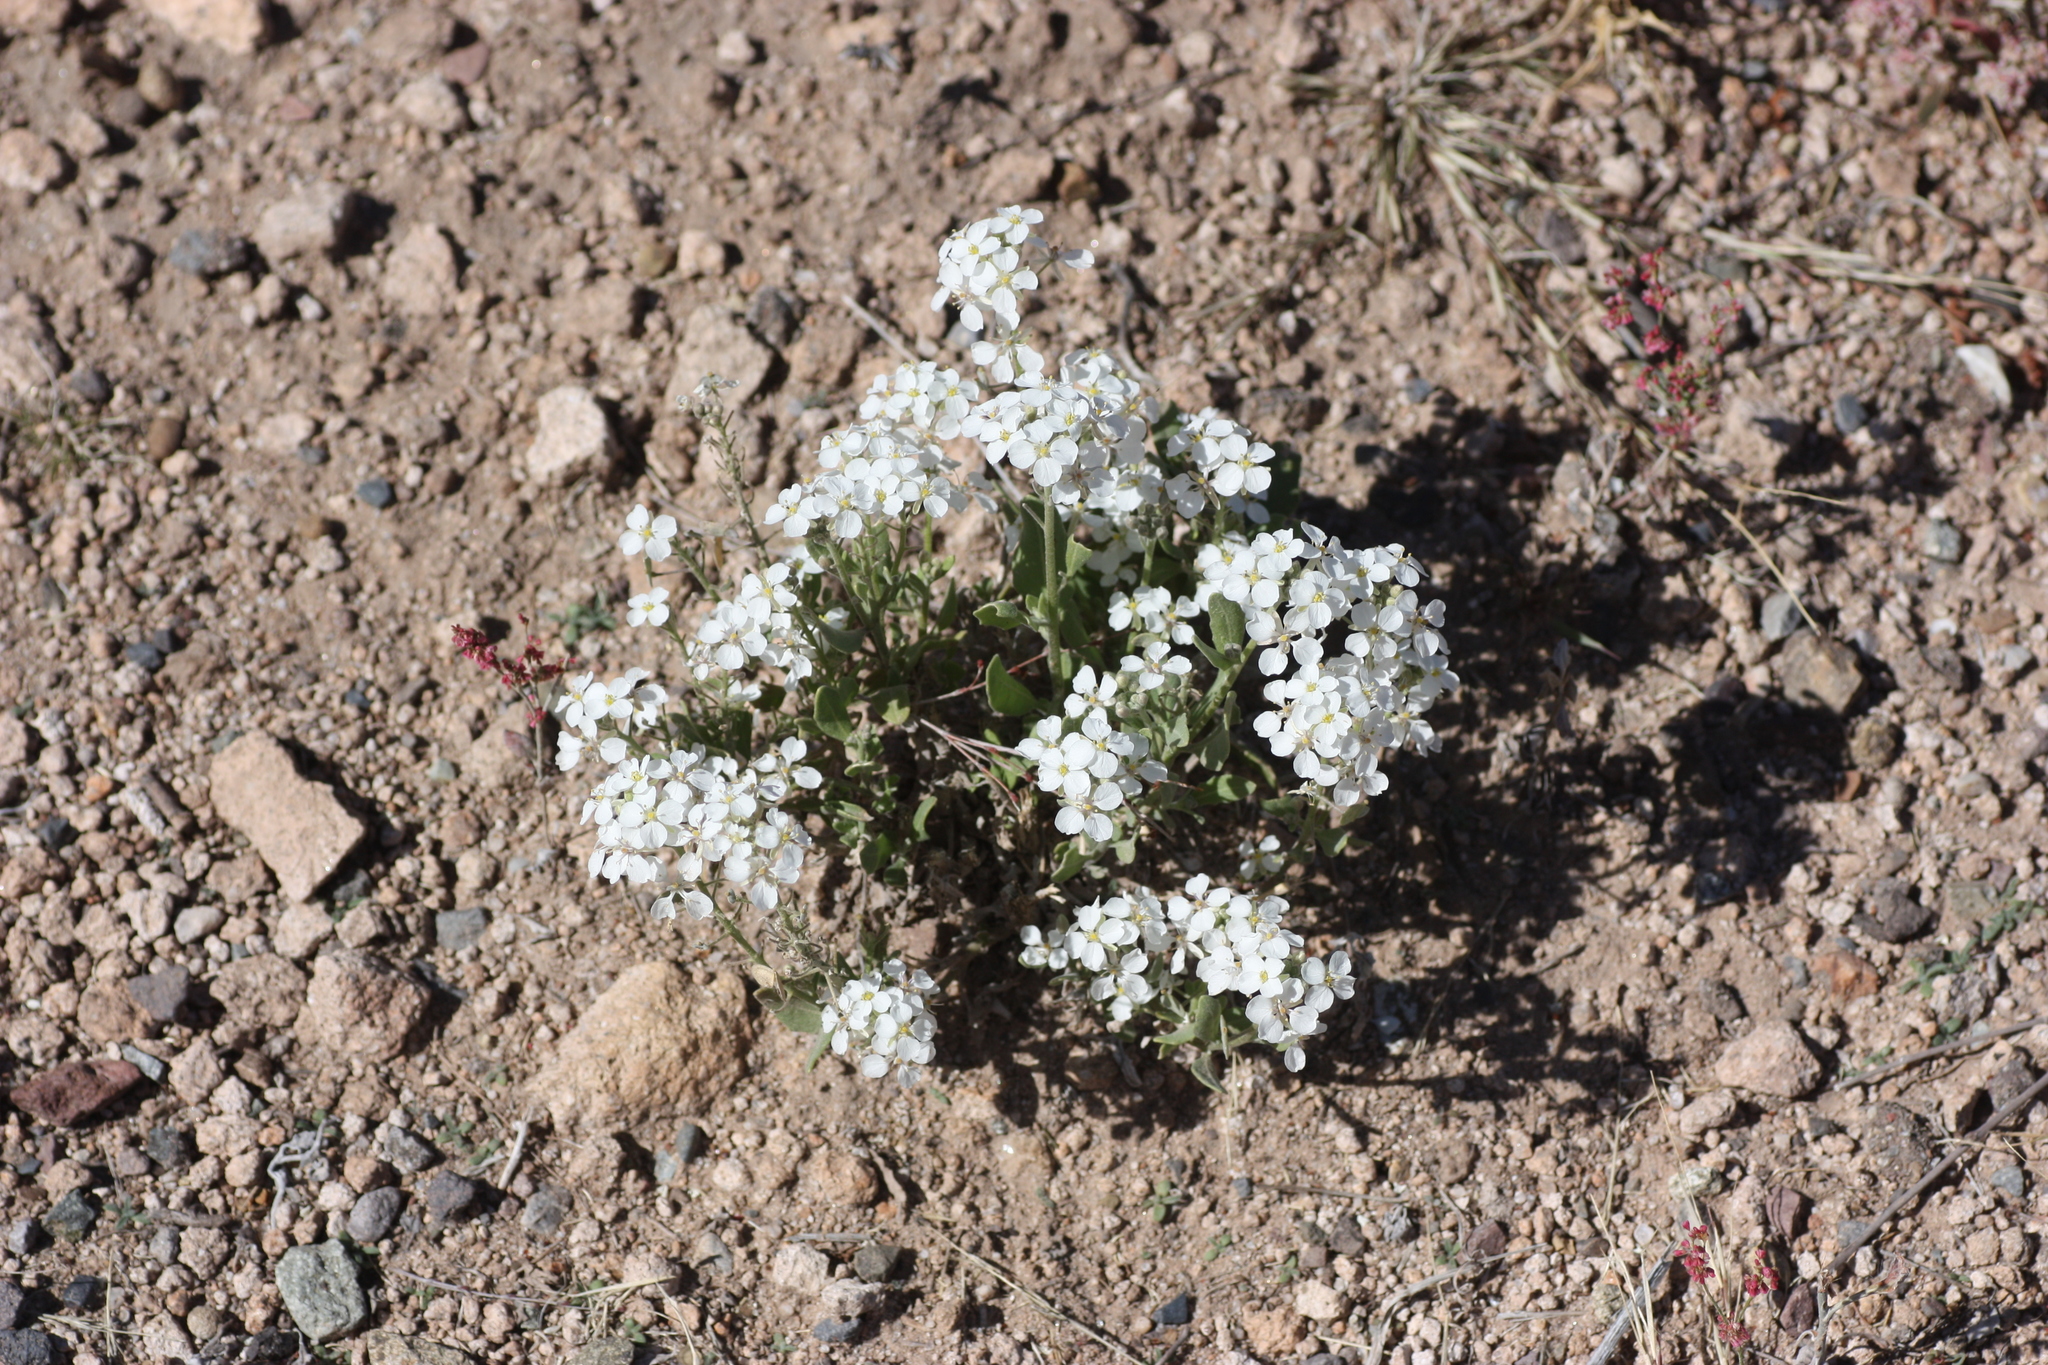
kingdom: Plantae
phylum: Tracheophyta
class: Magnoliopsida
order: Brassicales
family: Brassicaceae
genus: Dimorphocarpa
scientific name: Dimorphocarpa wislizenii
